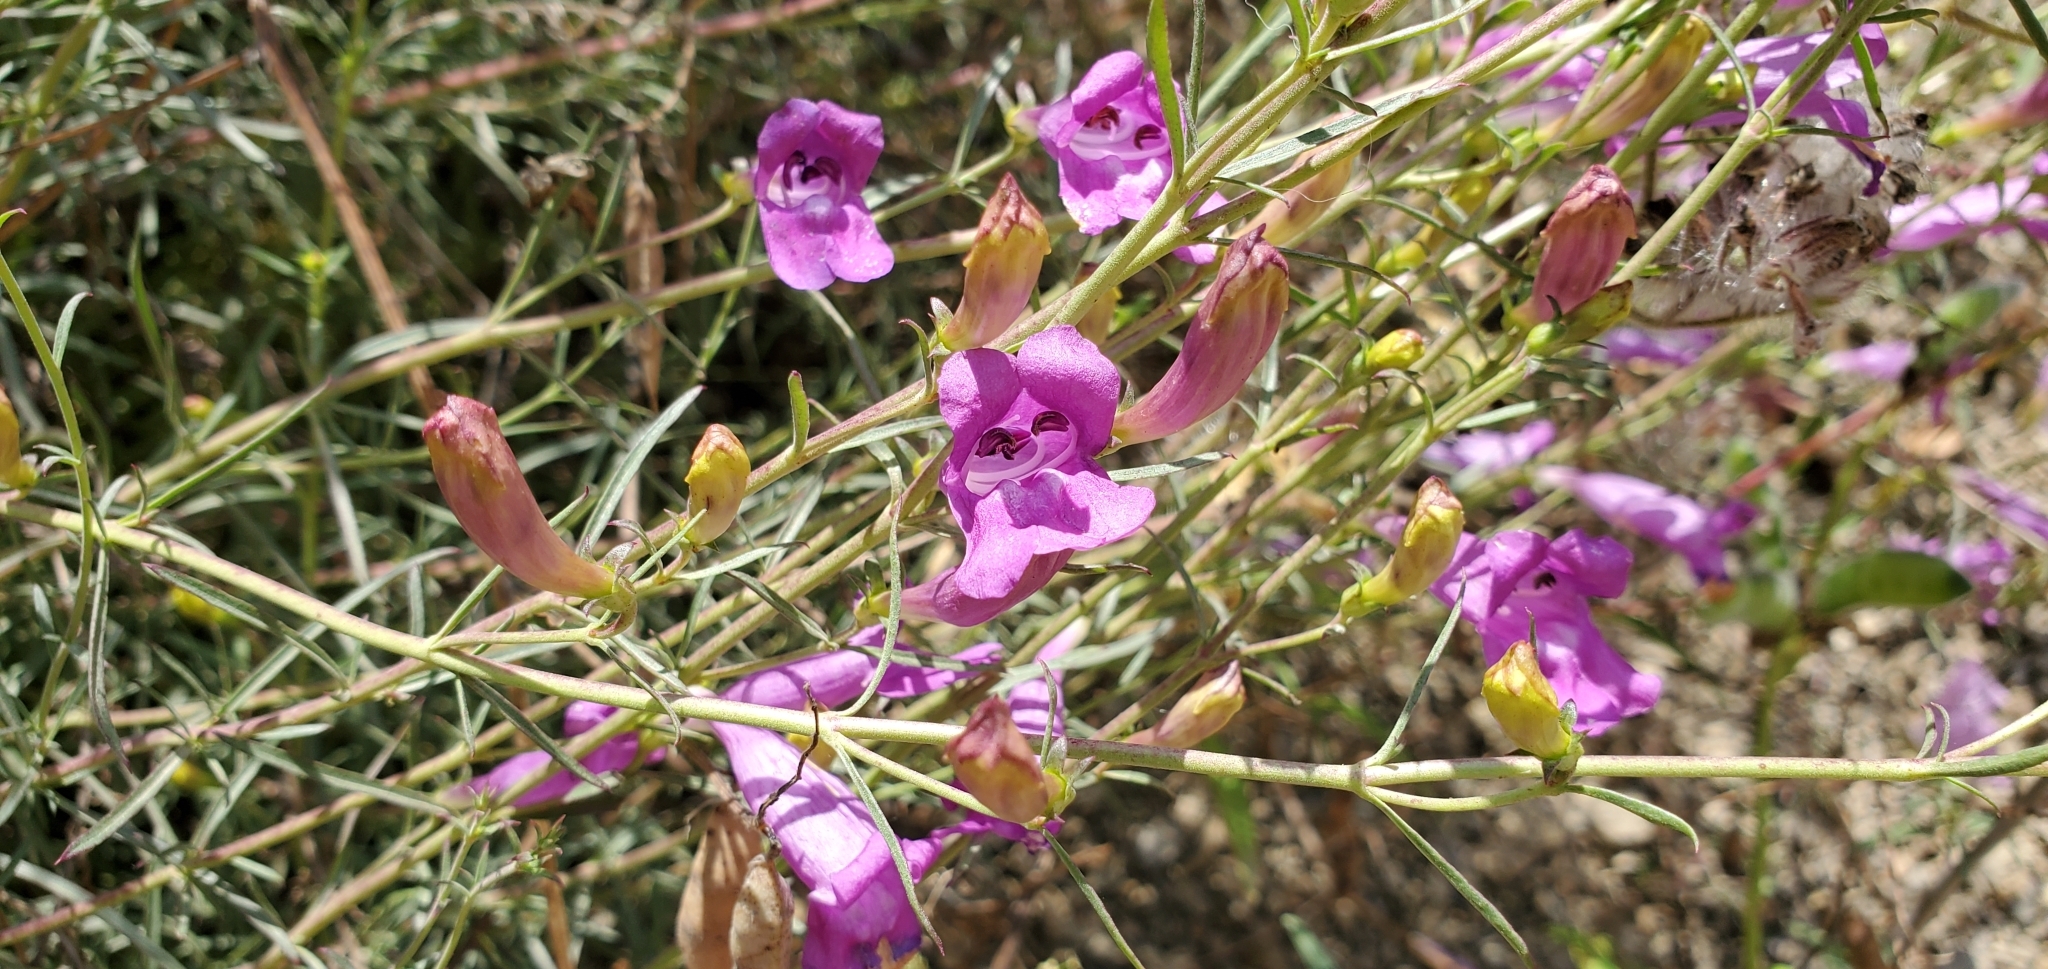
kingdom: Plantae
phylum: Tracheophyta
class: Magnoliopsida
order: Lamiales
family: Plantaginaceae
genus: Penstemon
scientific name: Penstemon heterophyllus
